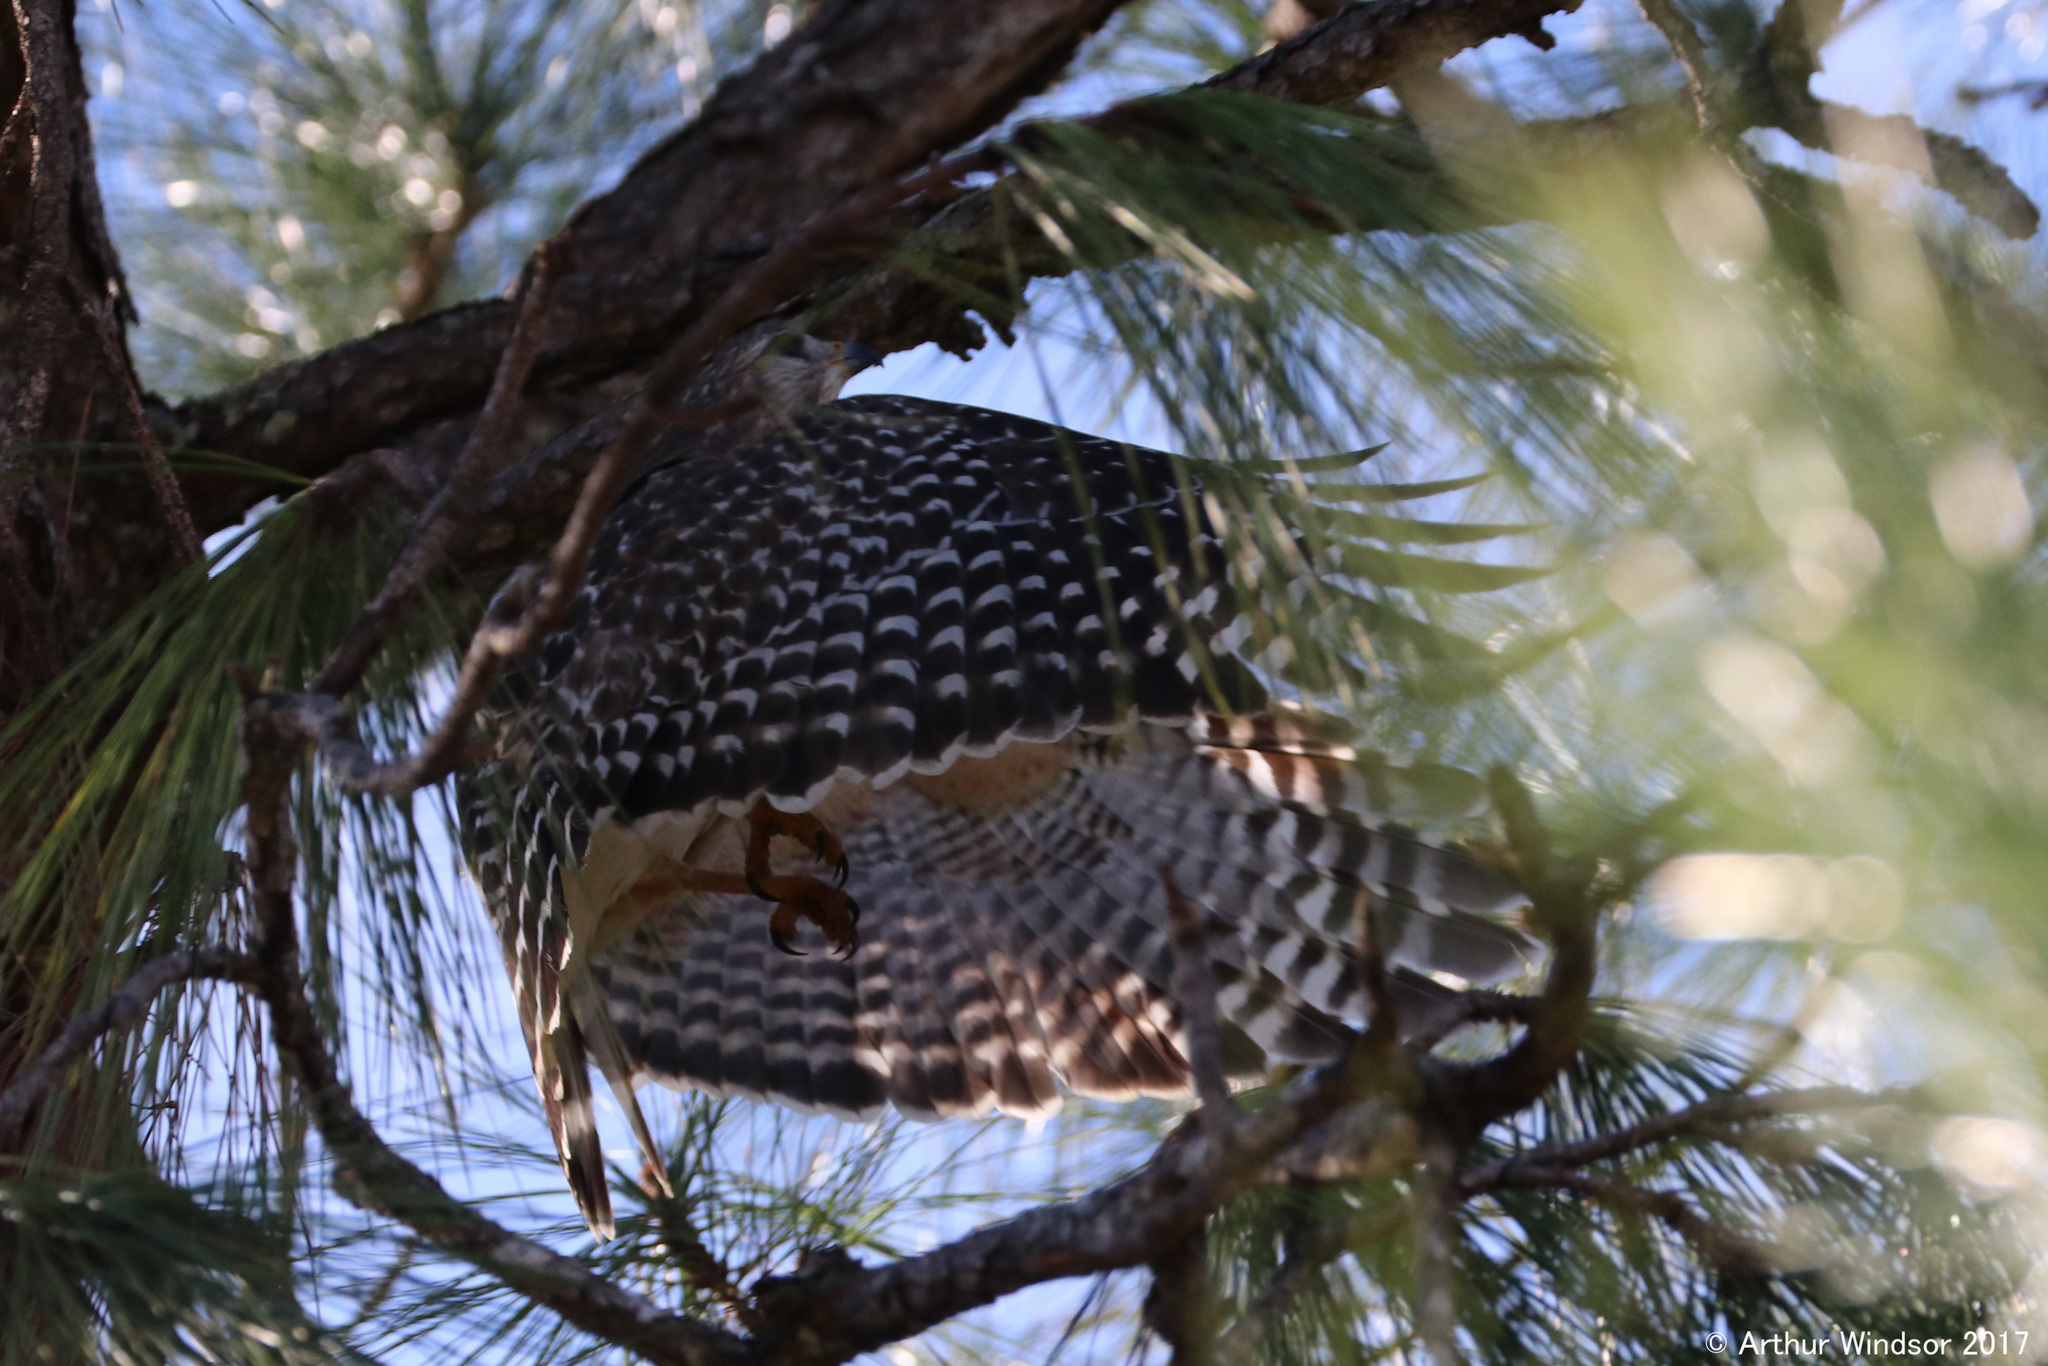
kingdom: Animalia
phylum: Chordata
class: Aves
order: Accipitriformes
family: Accipitridae
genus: Buteo
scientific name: Buteo lineatus
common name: Red-shouldered hawk
